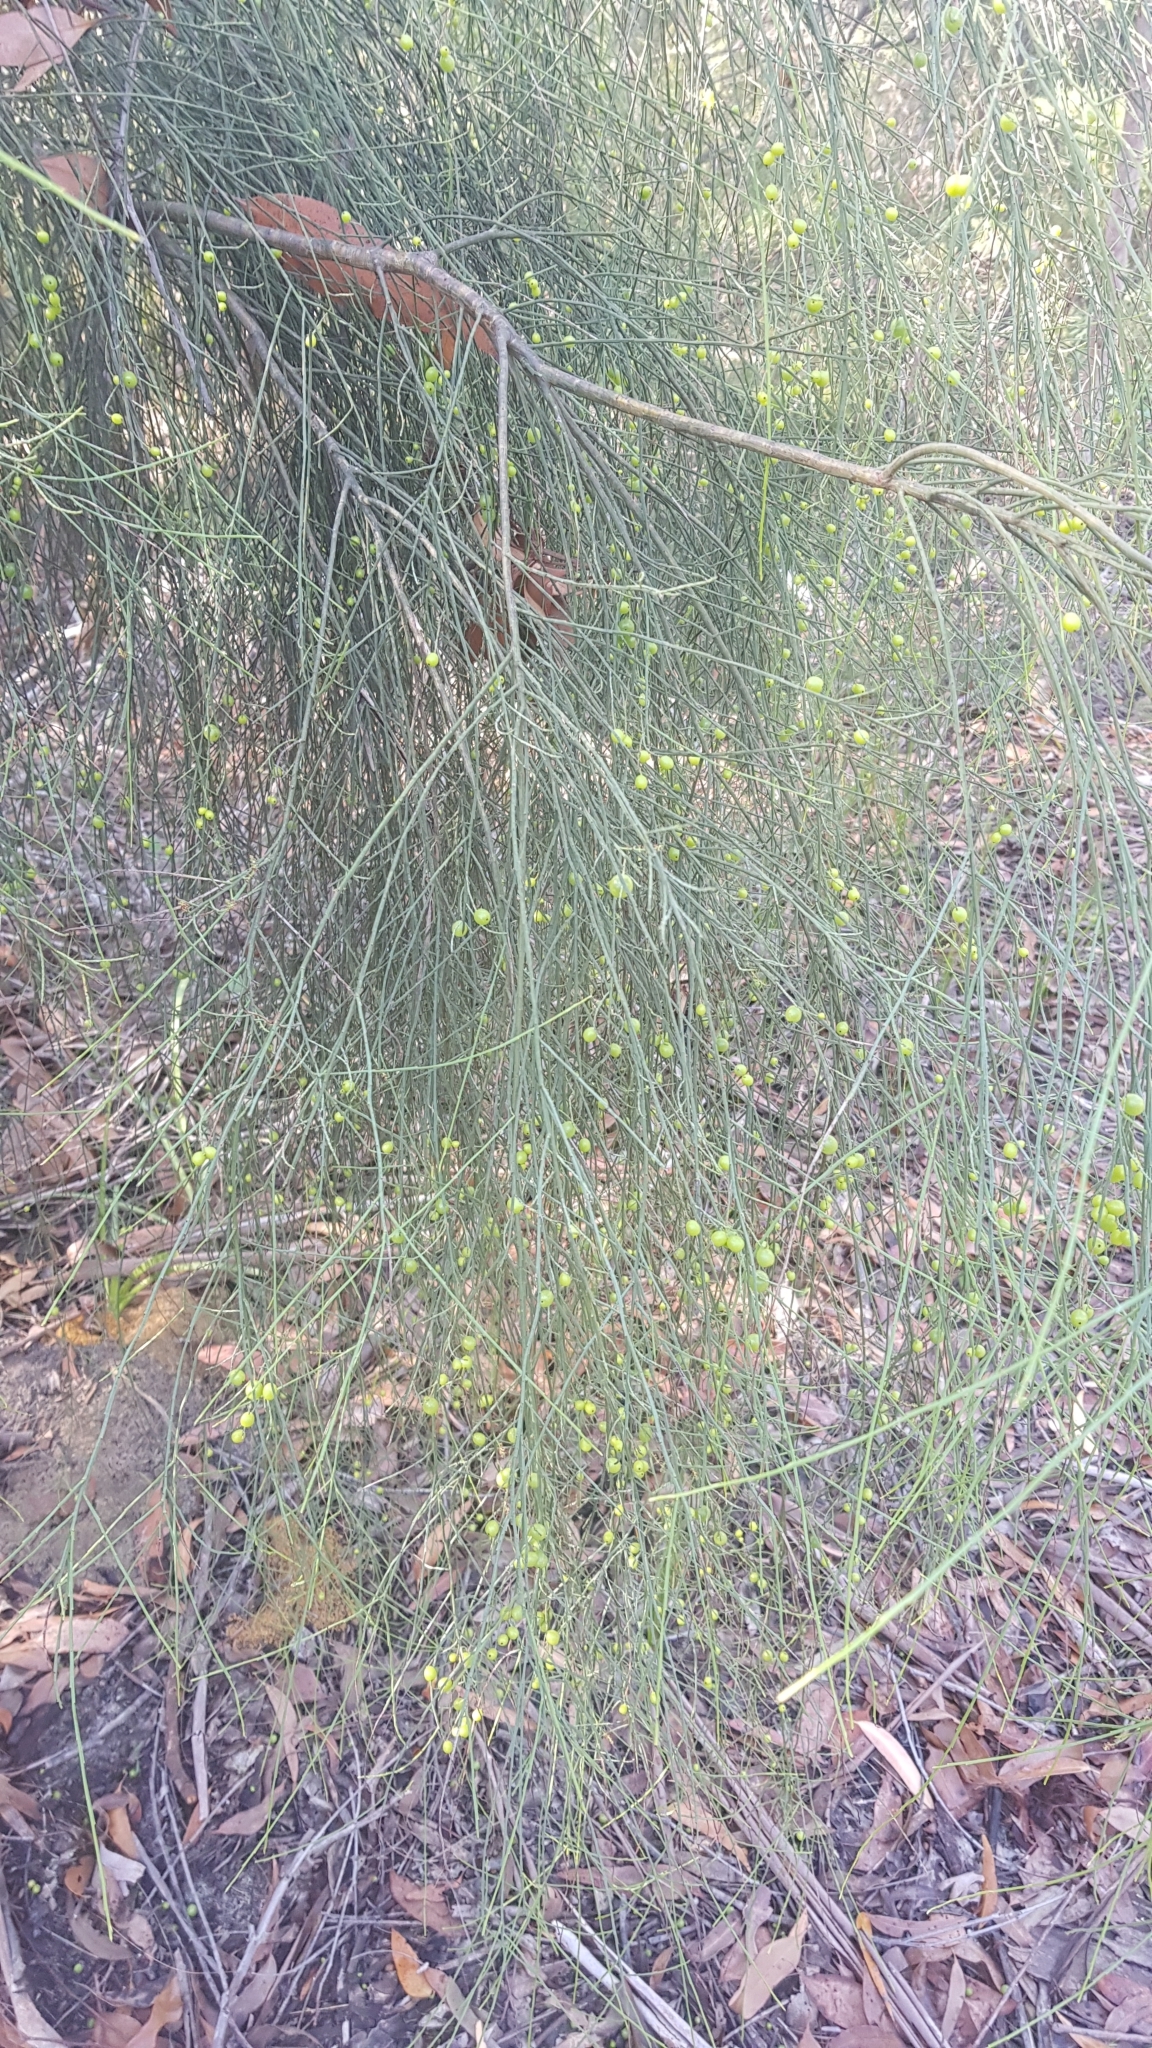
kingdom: Plantae
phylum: Tracheophyta
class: Magnoliopsida
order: Santalales
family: Amphorogynaceae
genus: Leptomeria
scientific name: Leptomeria acida
